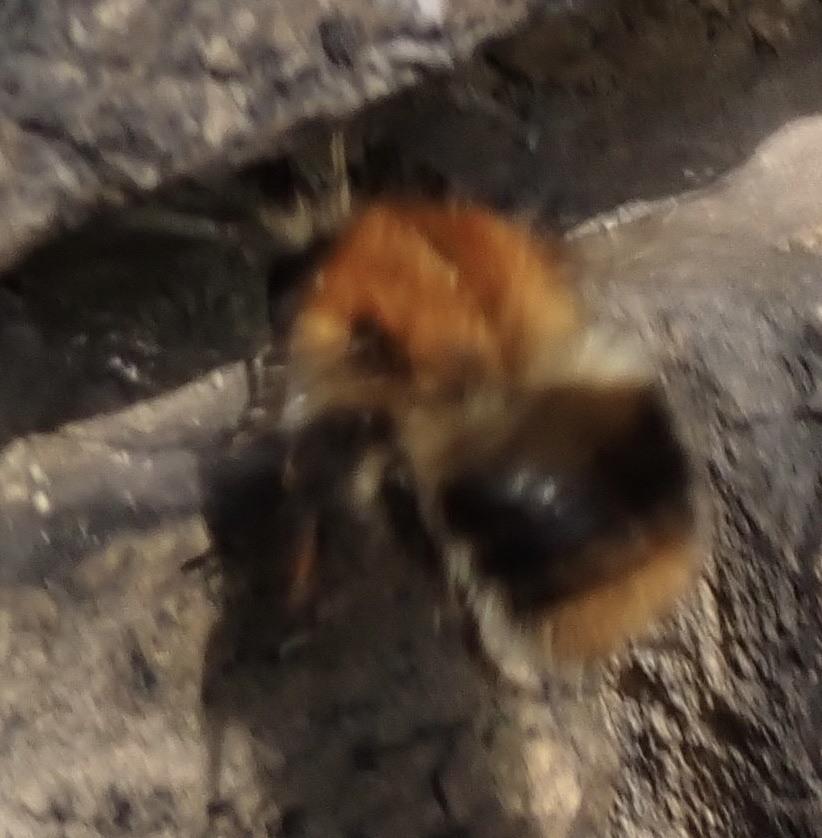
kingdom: Animalia
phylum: Arthropoda
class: Insecta
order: Hymenoptera
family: Apidae
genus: Bombus
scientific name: Bombus pascuorum
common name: Common carder bee
